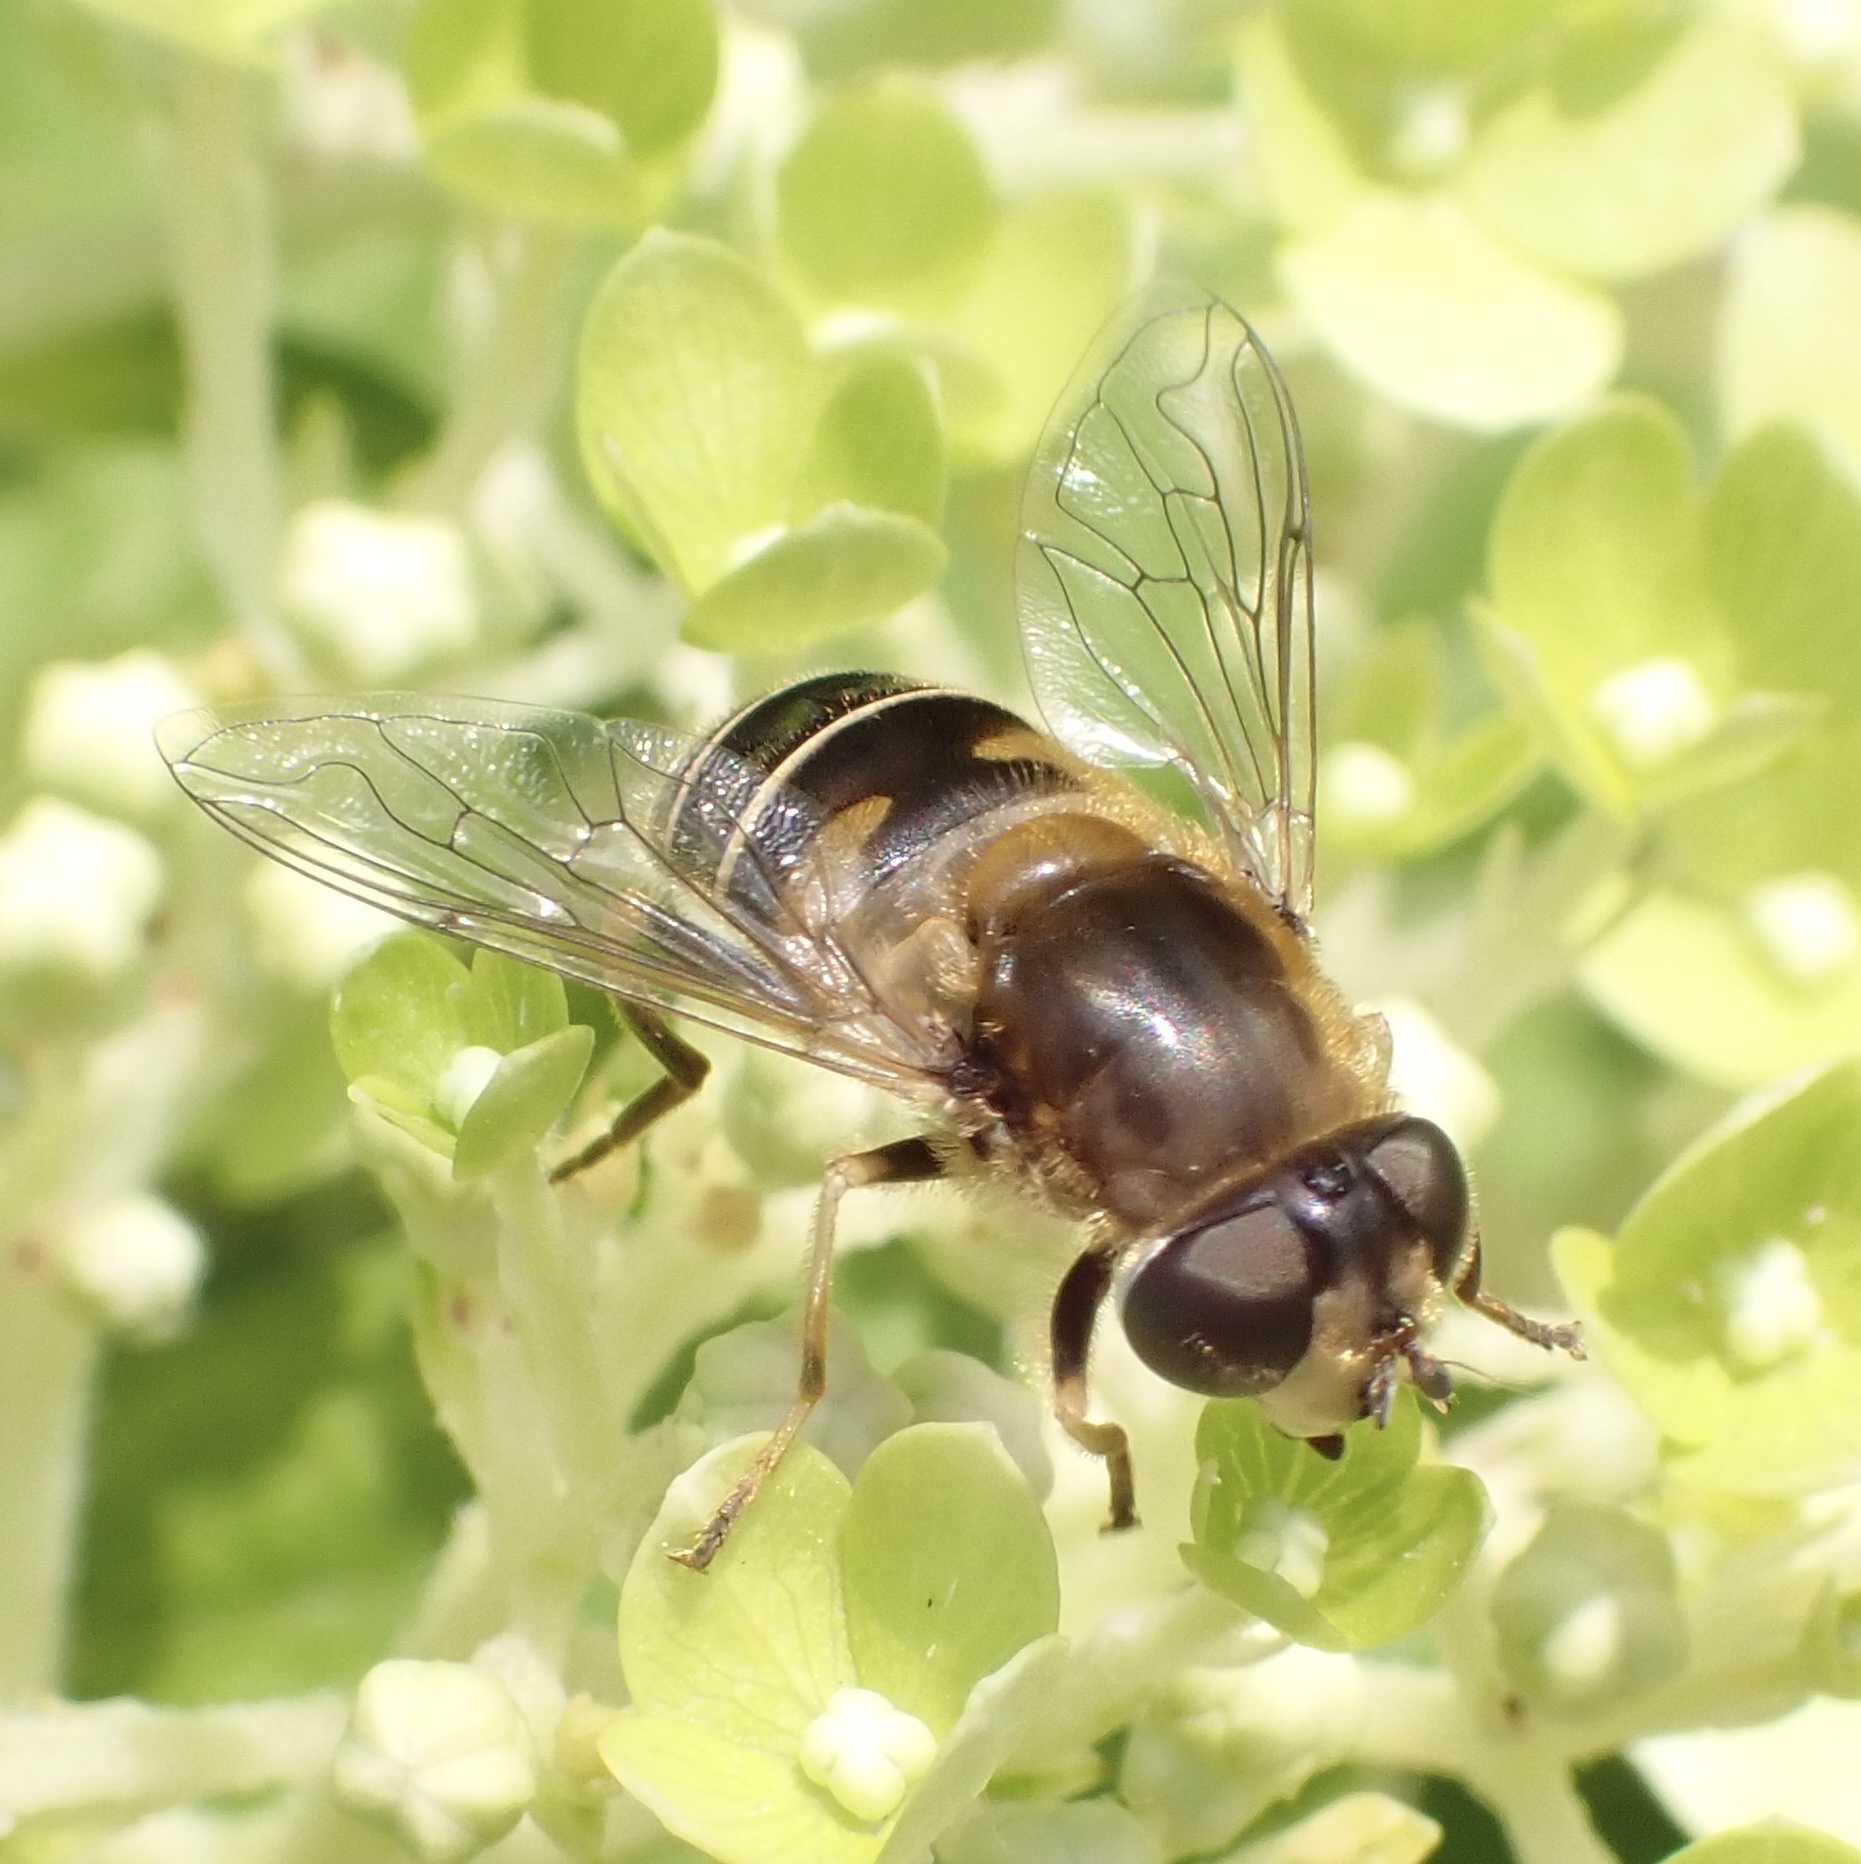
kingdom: Animalia
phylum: Arthropoda
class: Insecta
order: Diptera
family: Syrphidae
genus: Eristalis
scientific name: Eristalis nemorum
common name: Orange-spined drone fly
